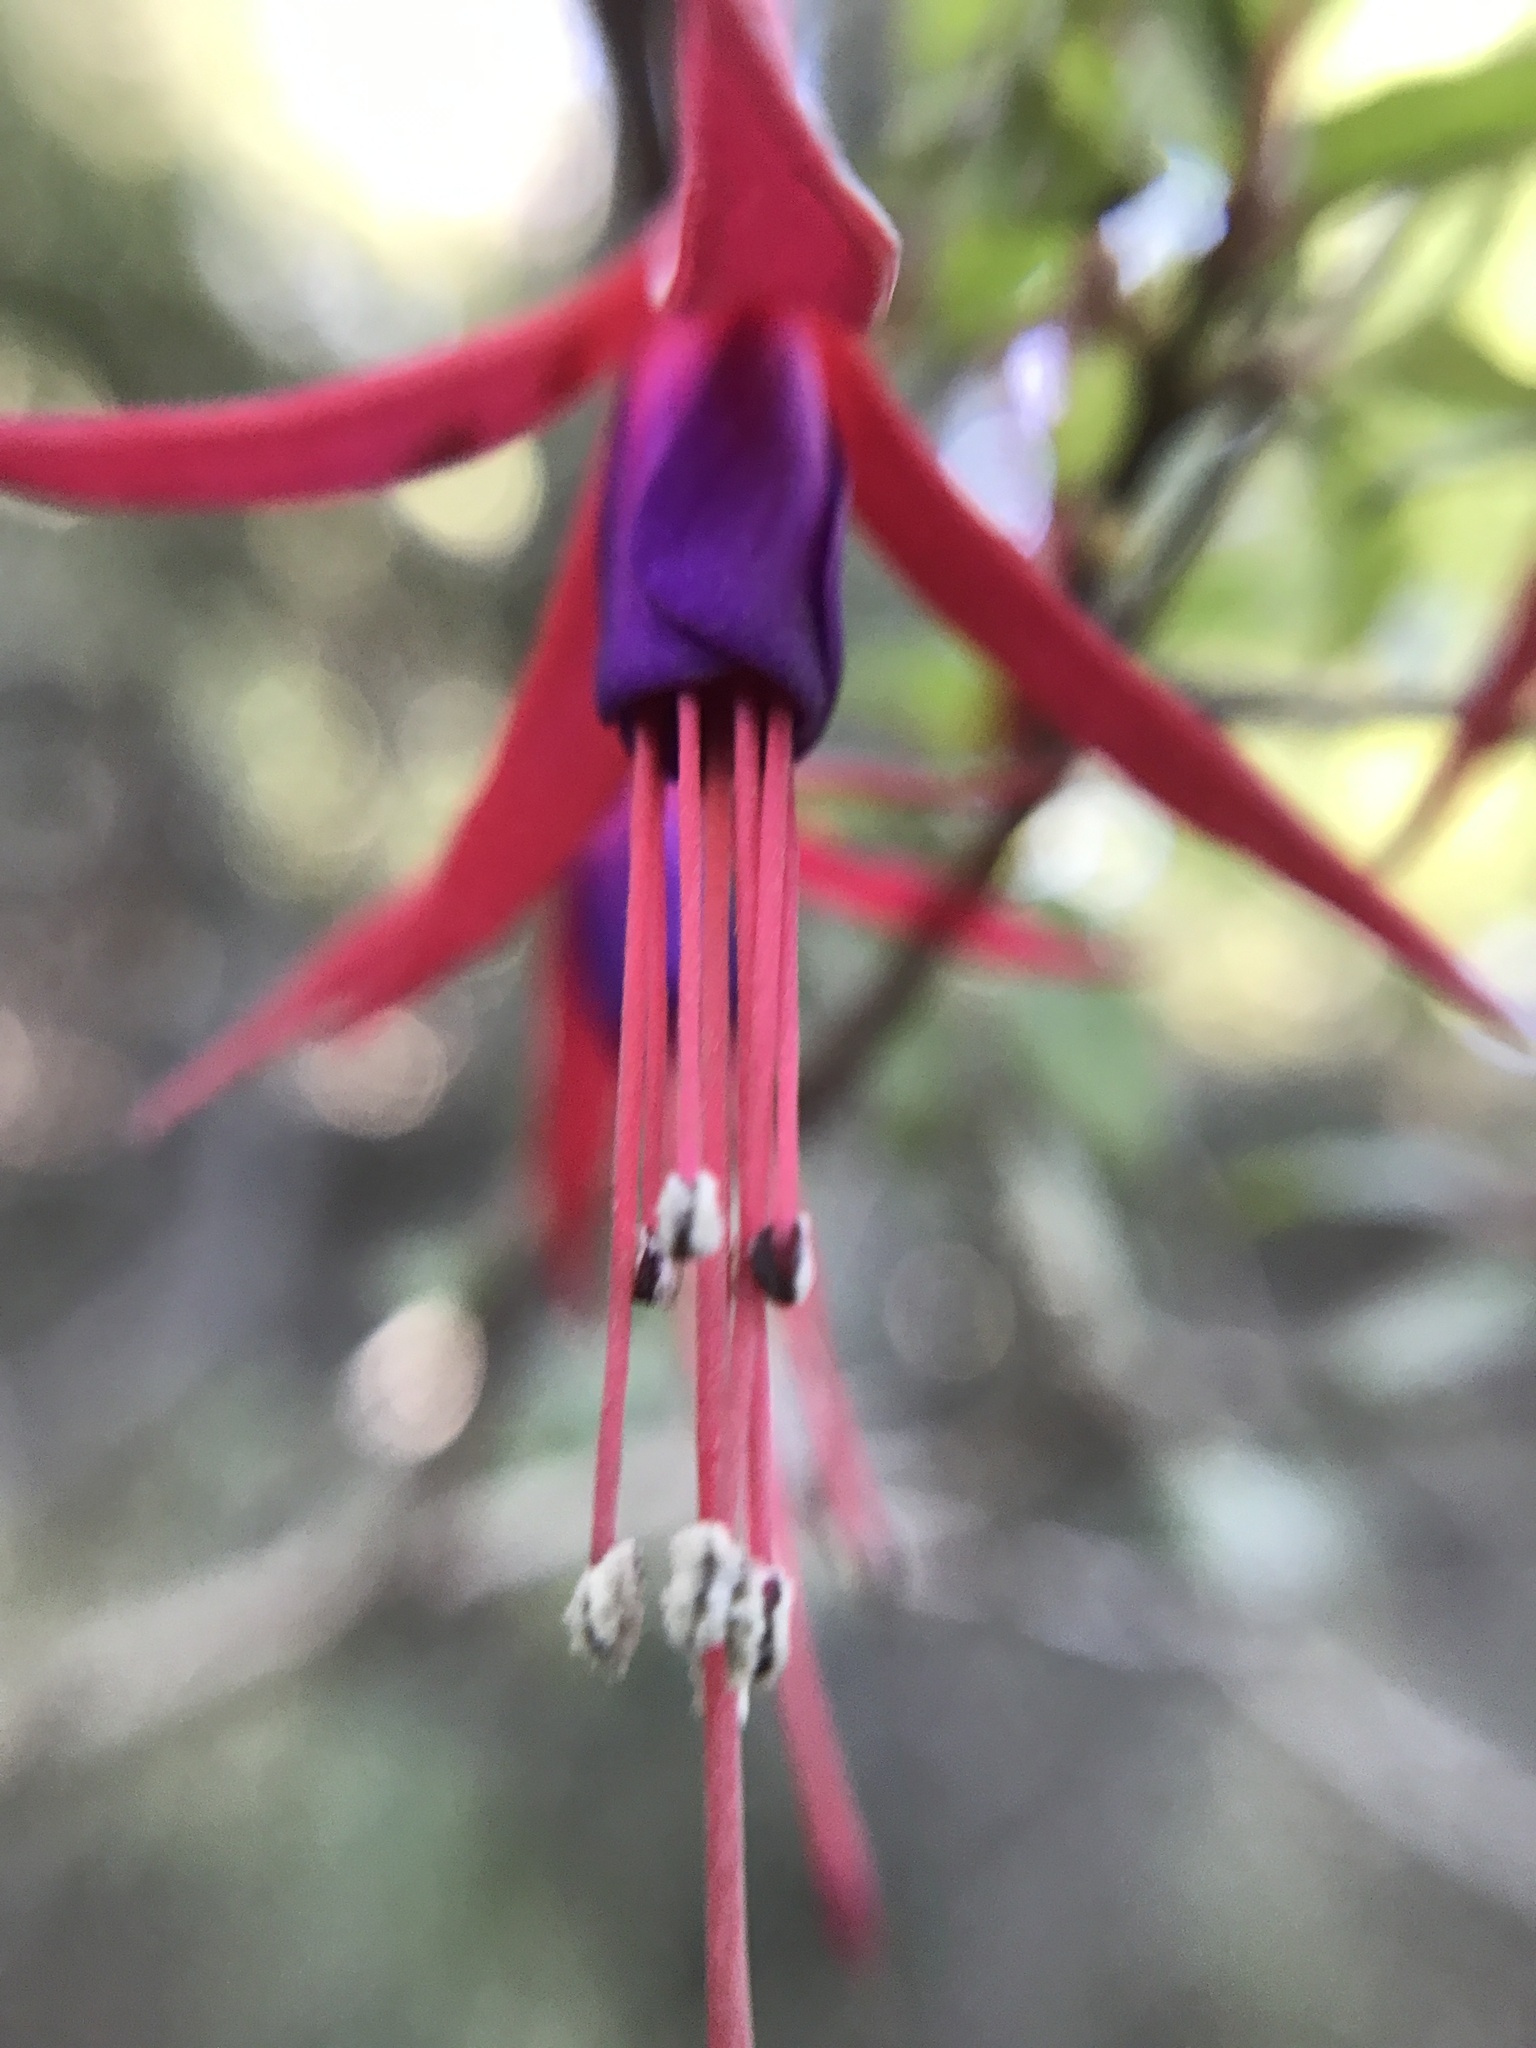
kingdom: Plantae
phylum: Tracheophyta
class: Magnoliopsida
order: Myrtales
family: Onagraceae
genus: Fuchsia
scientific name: Fuchsia magellanica
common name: Hardy fuchsia
